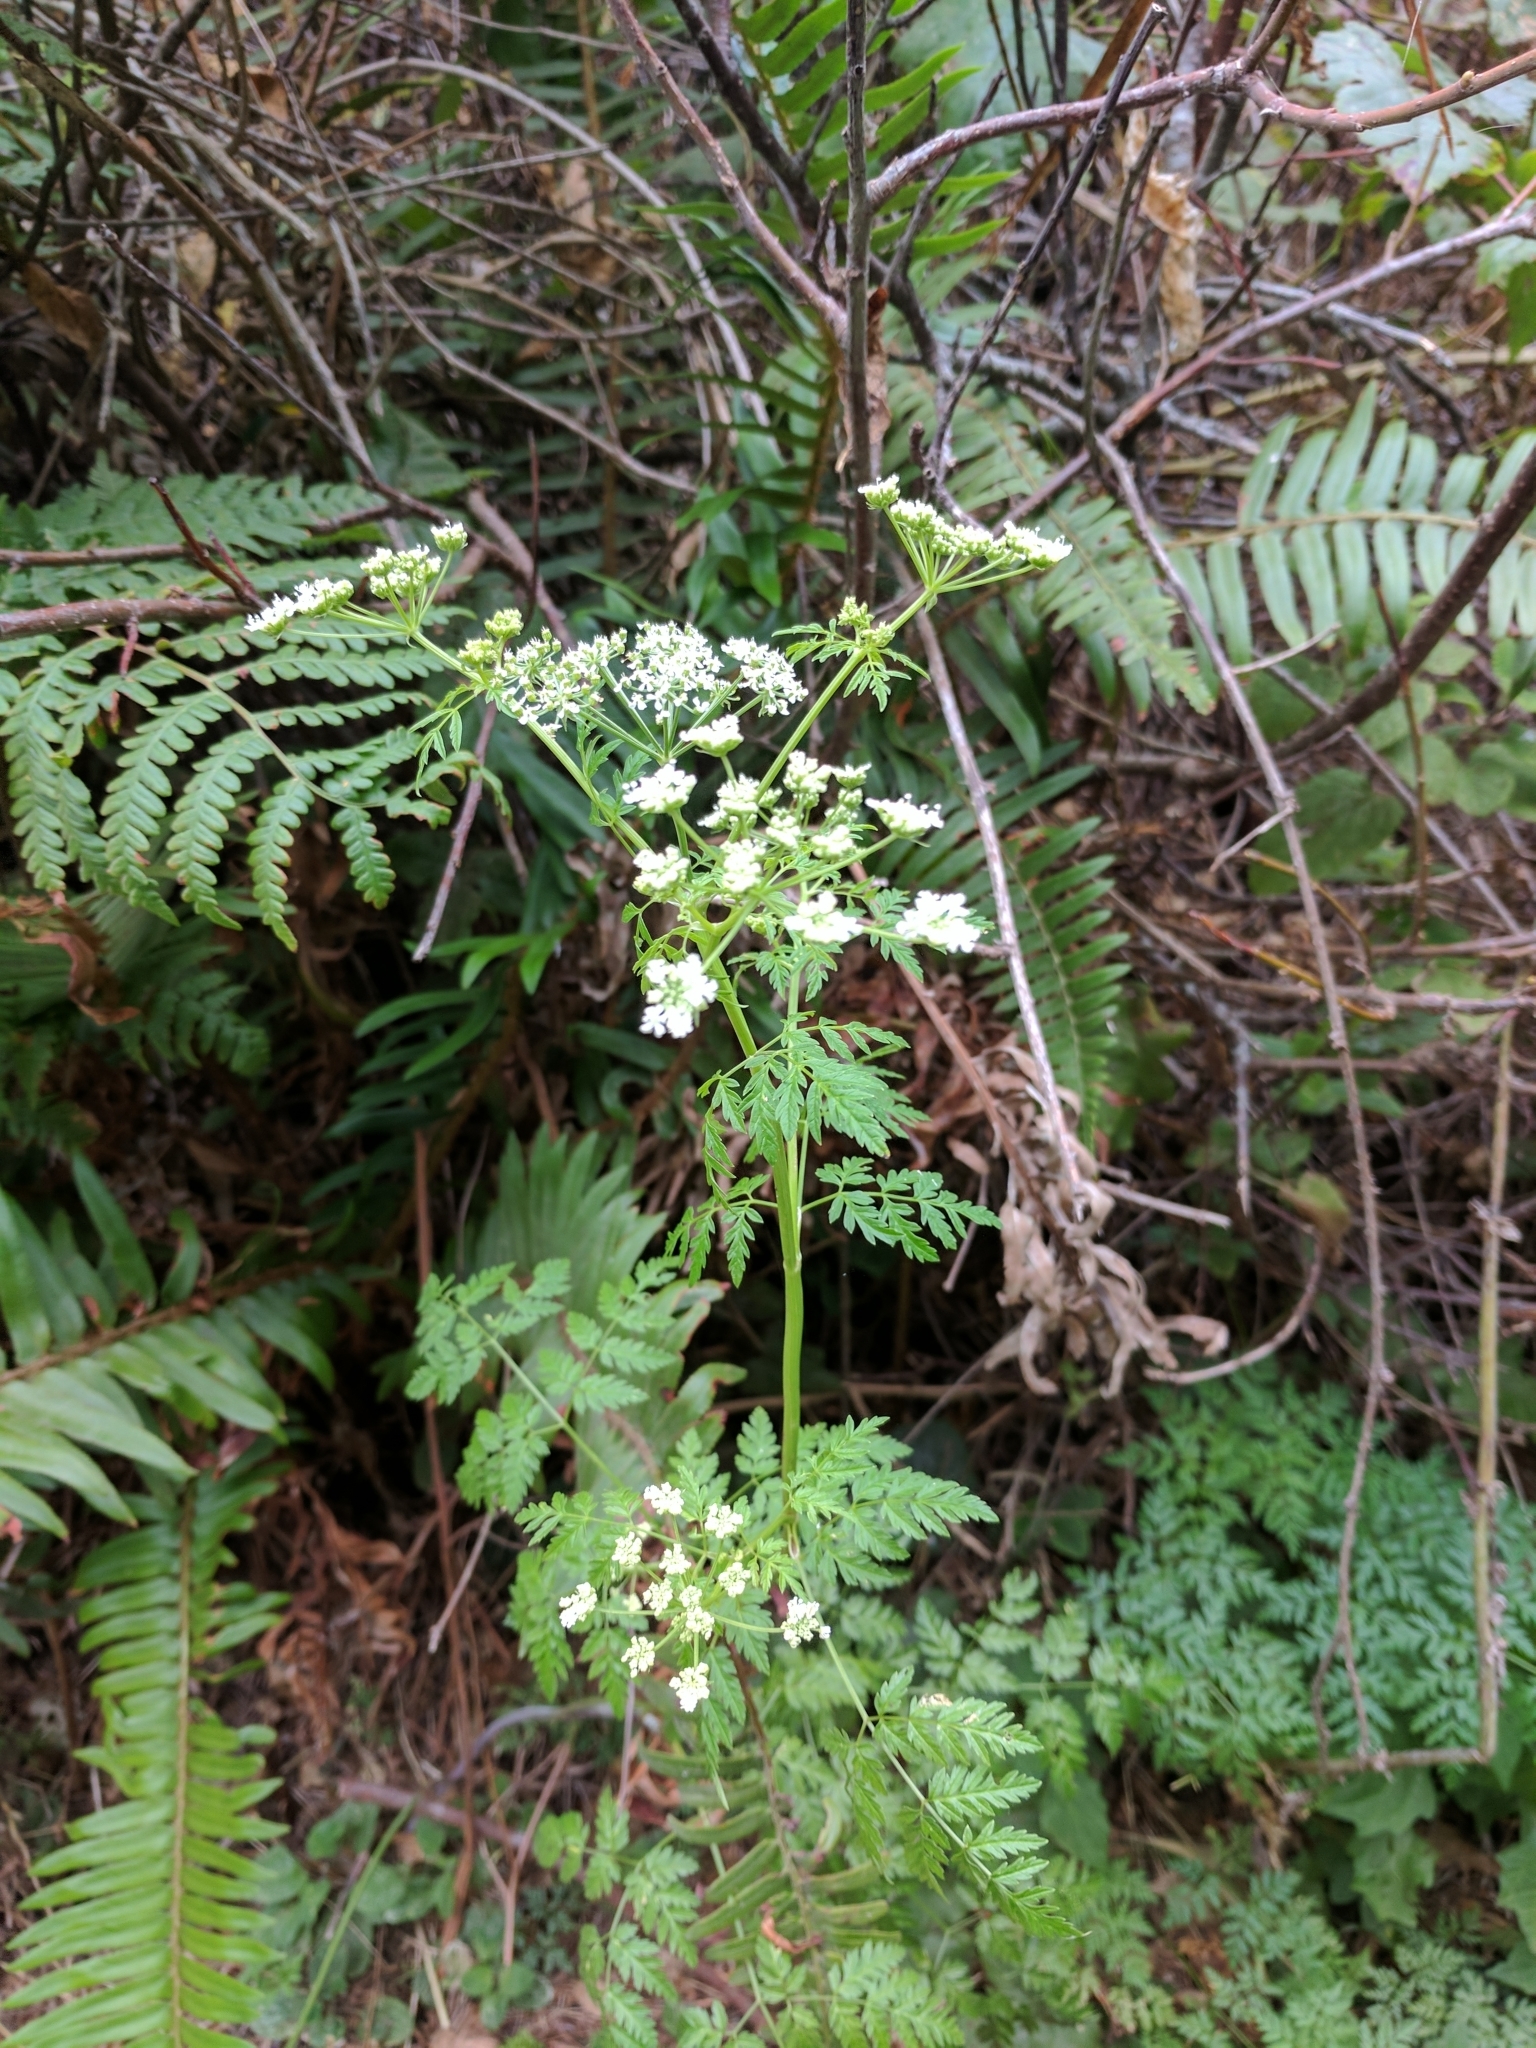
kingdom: Plantae
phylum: Tracheophyta
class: Magnoliopsida
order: Apiales
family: Apiaceae
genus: Conium
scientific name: Conium maculatum
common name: Hemlock
